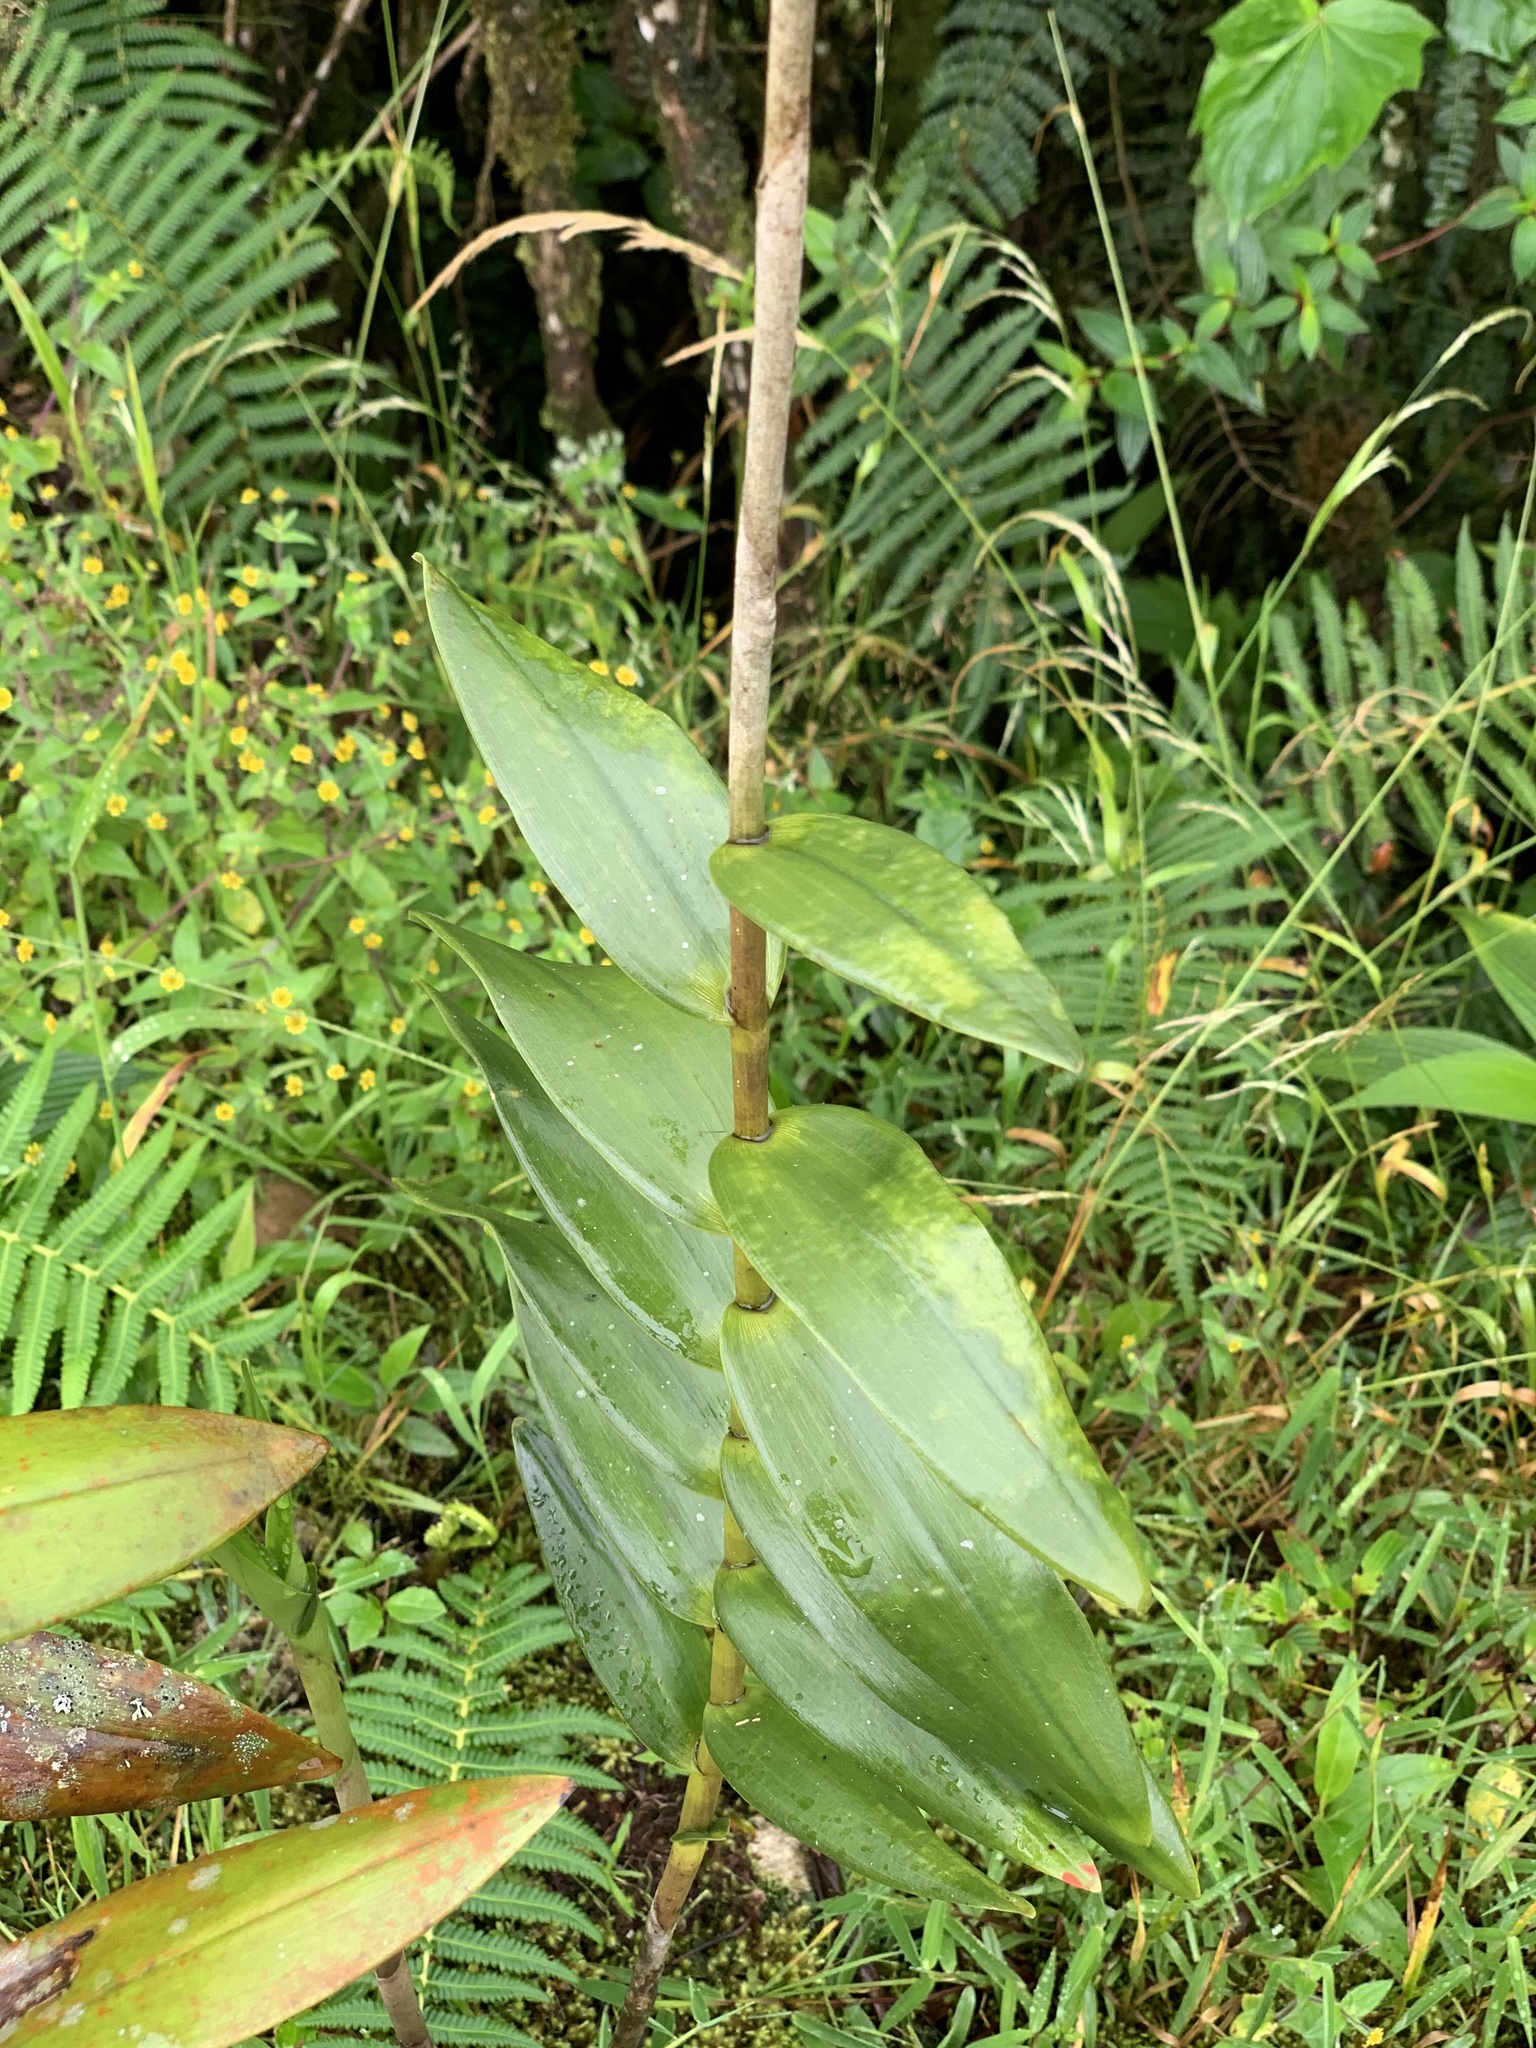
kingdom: Plantae
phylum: Tracheophyta
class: Liliopsida
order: Asparagales
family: Orchidaceae
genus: Epidendrum
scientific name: Epidendrum secundum
